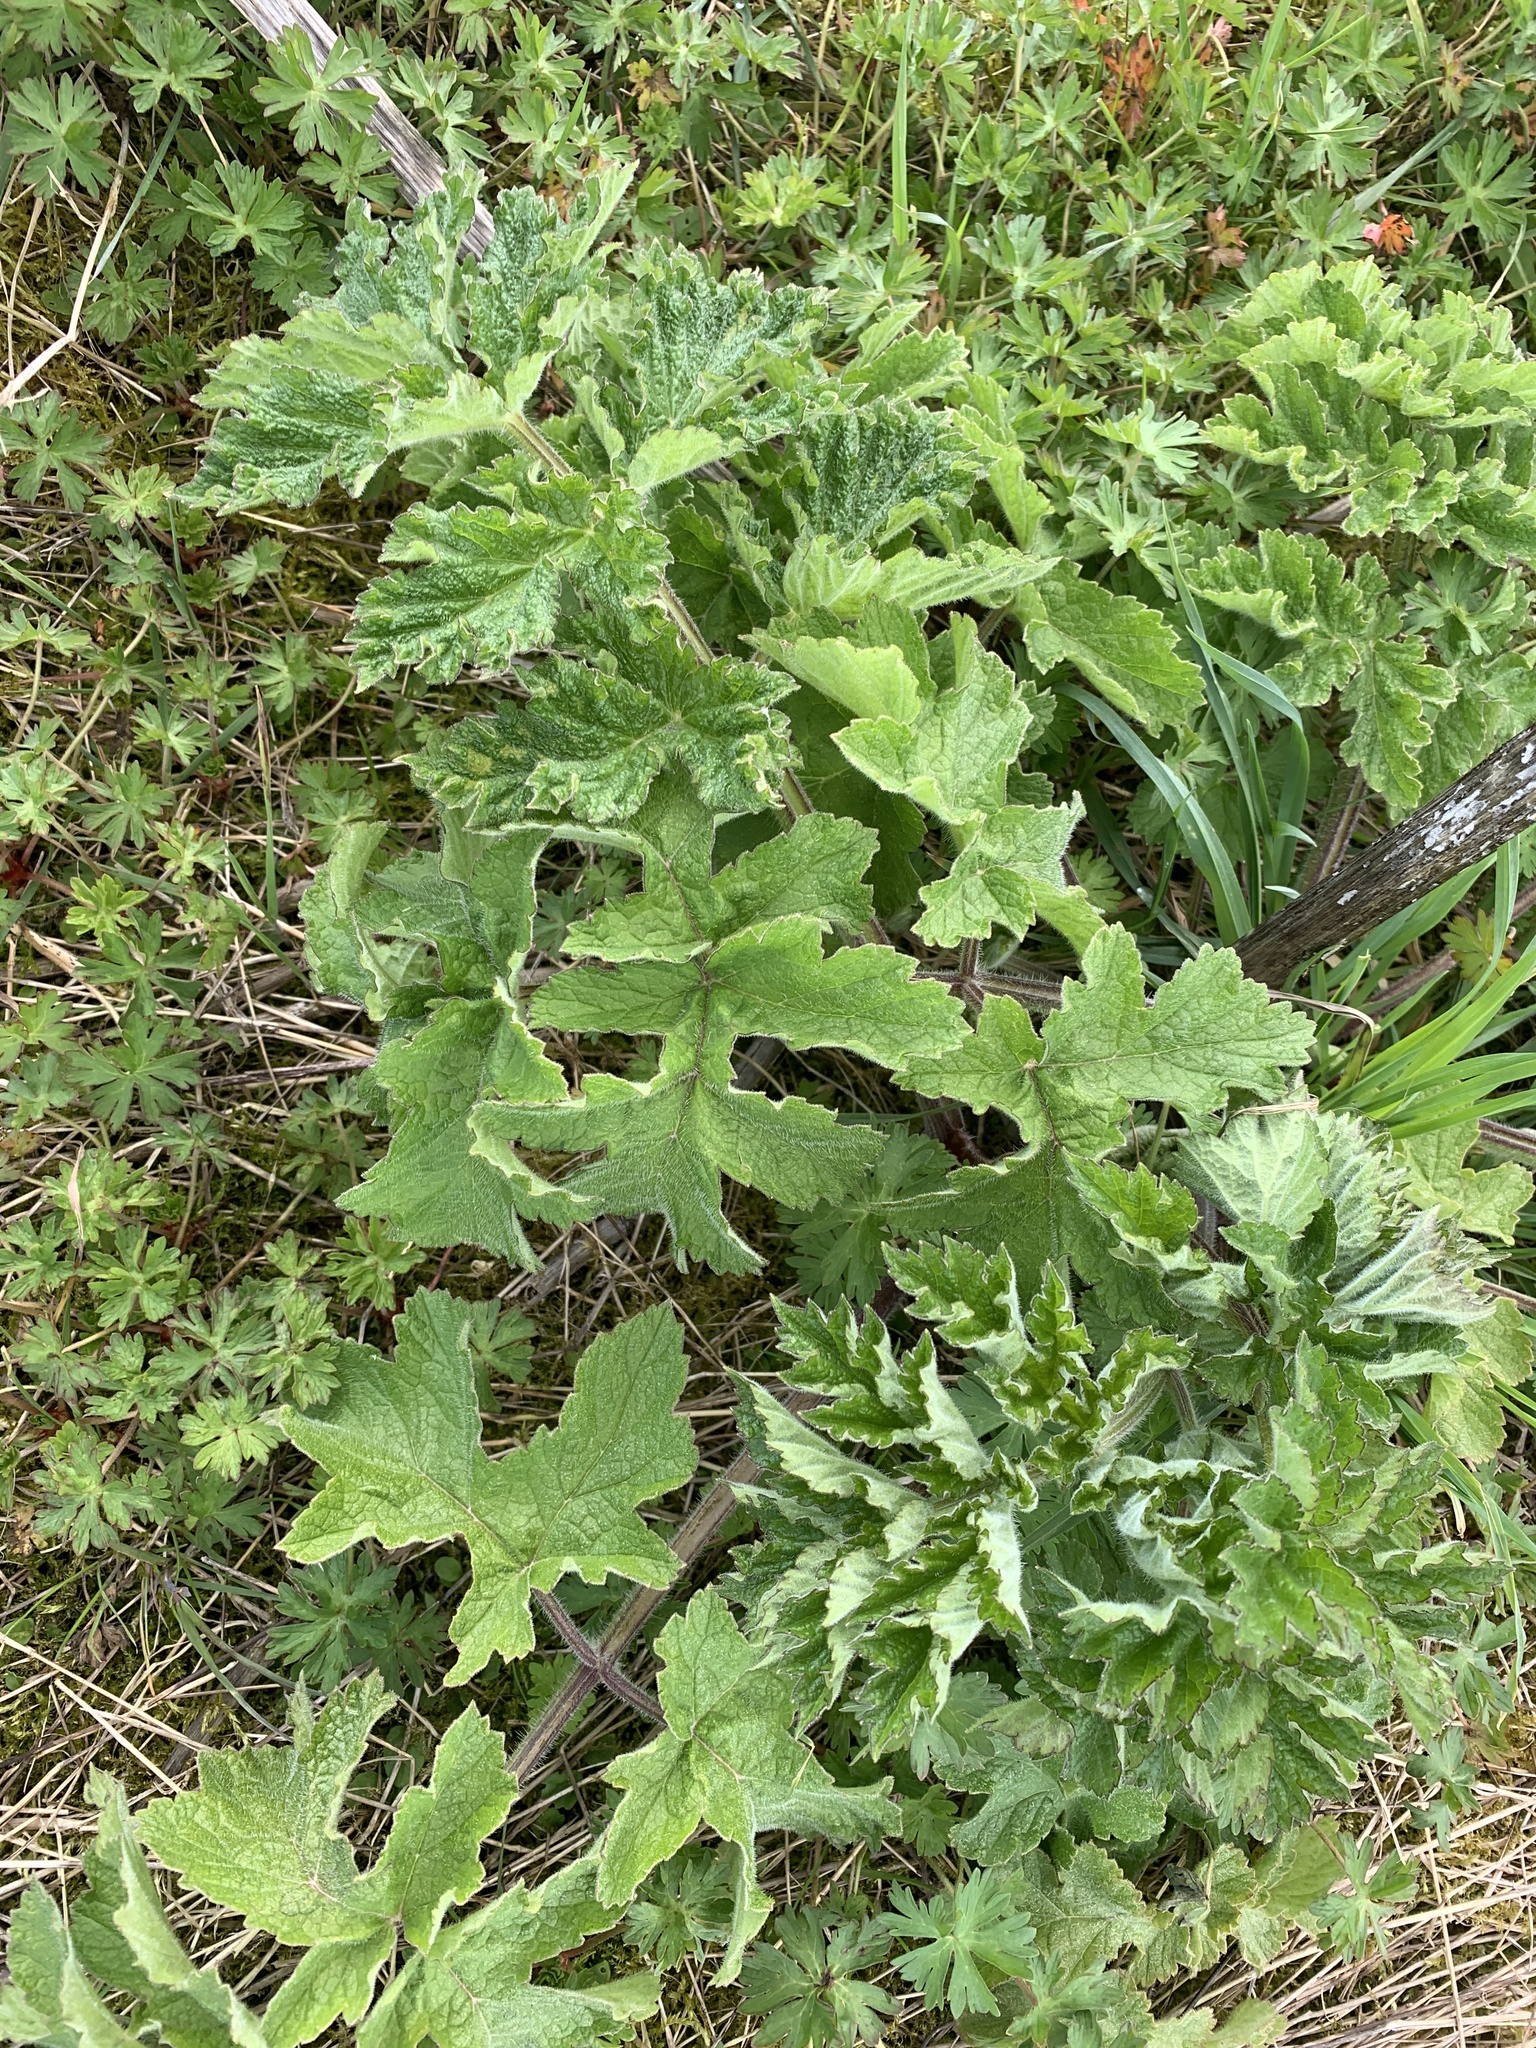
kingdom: Plantae
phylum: Tracheophyta
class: Magnoliopsida
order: Apiales
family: Apiaceae
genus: Heracleum
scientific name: Heracleum sphondylium
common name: Hogweed
